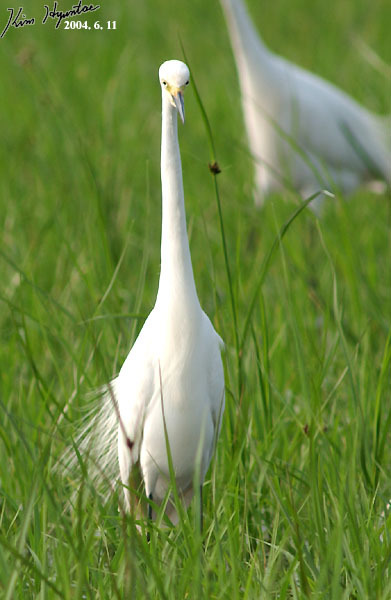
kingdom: Animalia
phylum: Chordata
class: Aves
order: Pelecaniformes
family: Ardeidae
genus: Egretta
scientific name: Egretta intermedia
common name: Intermediate egret
